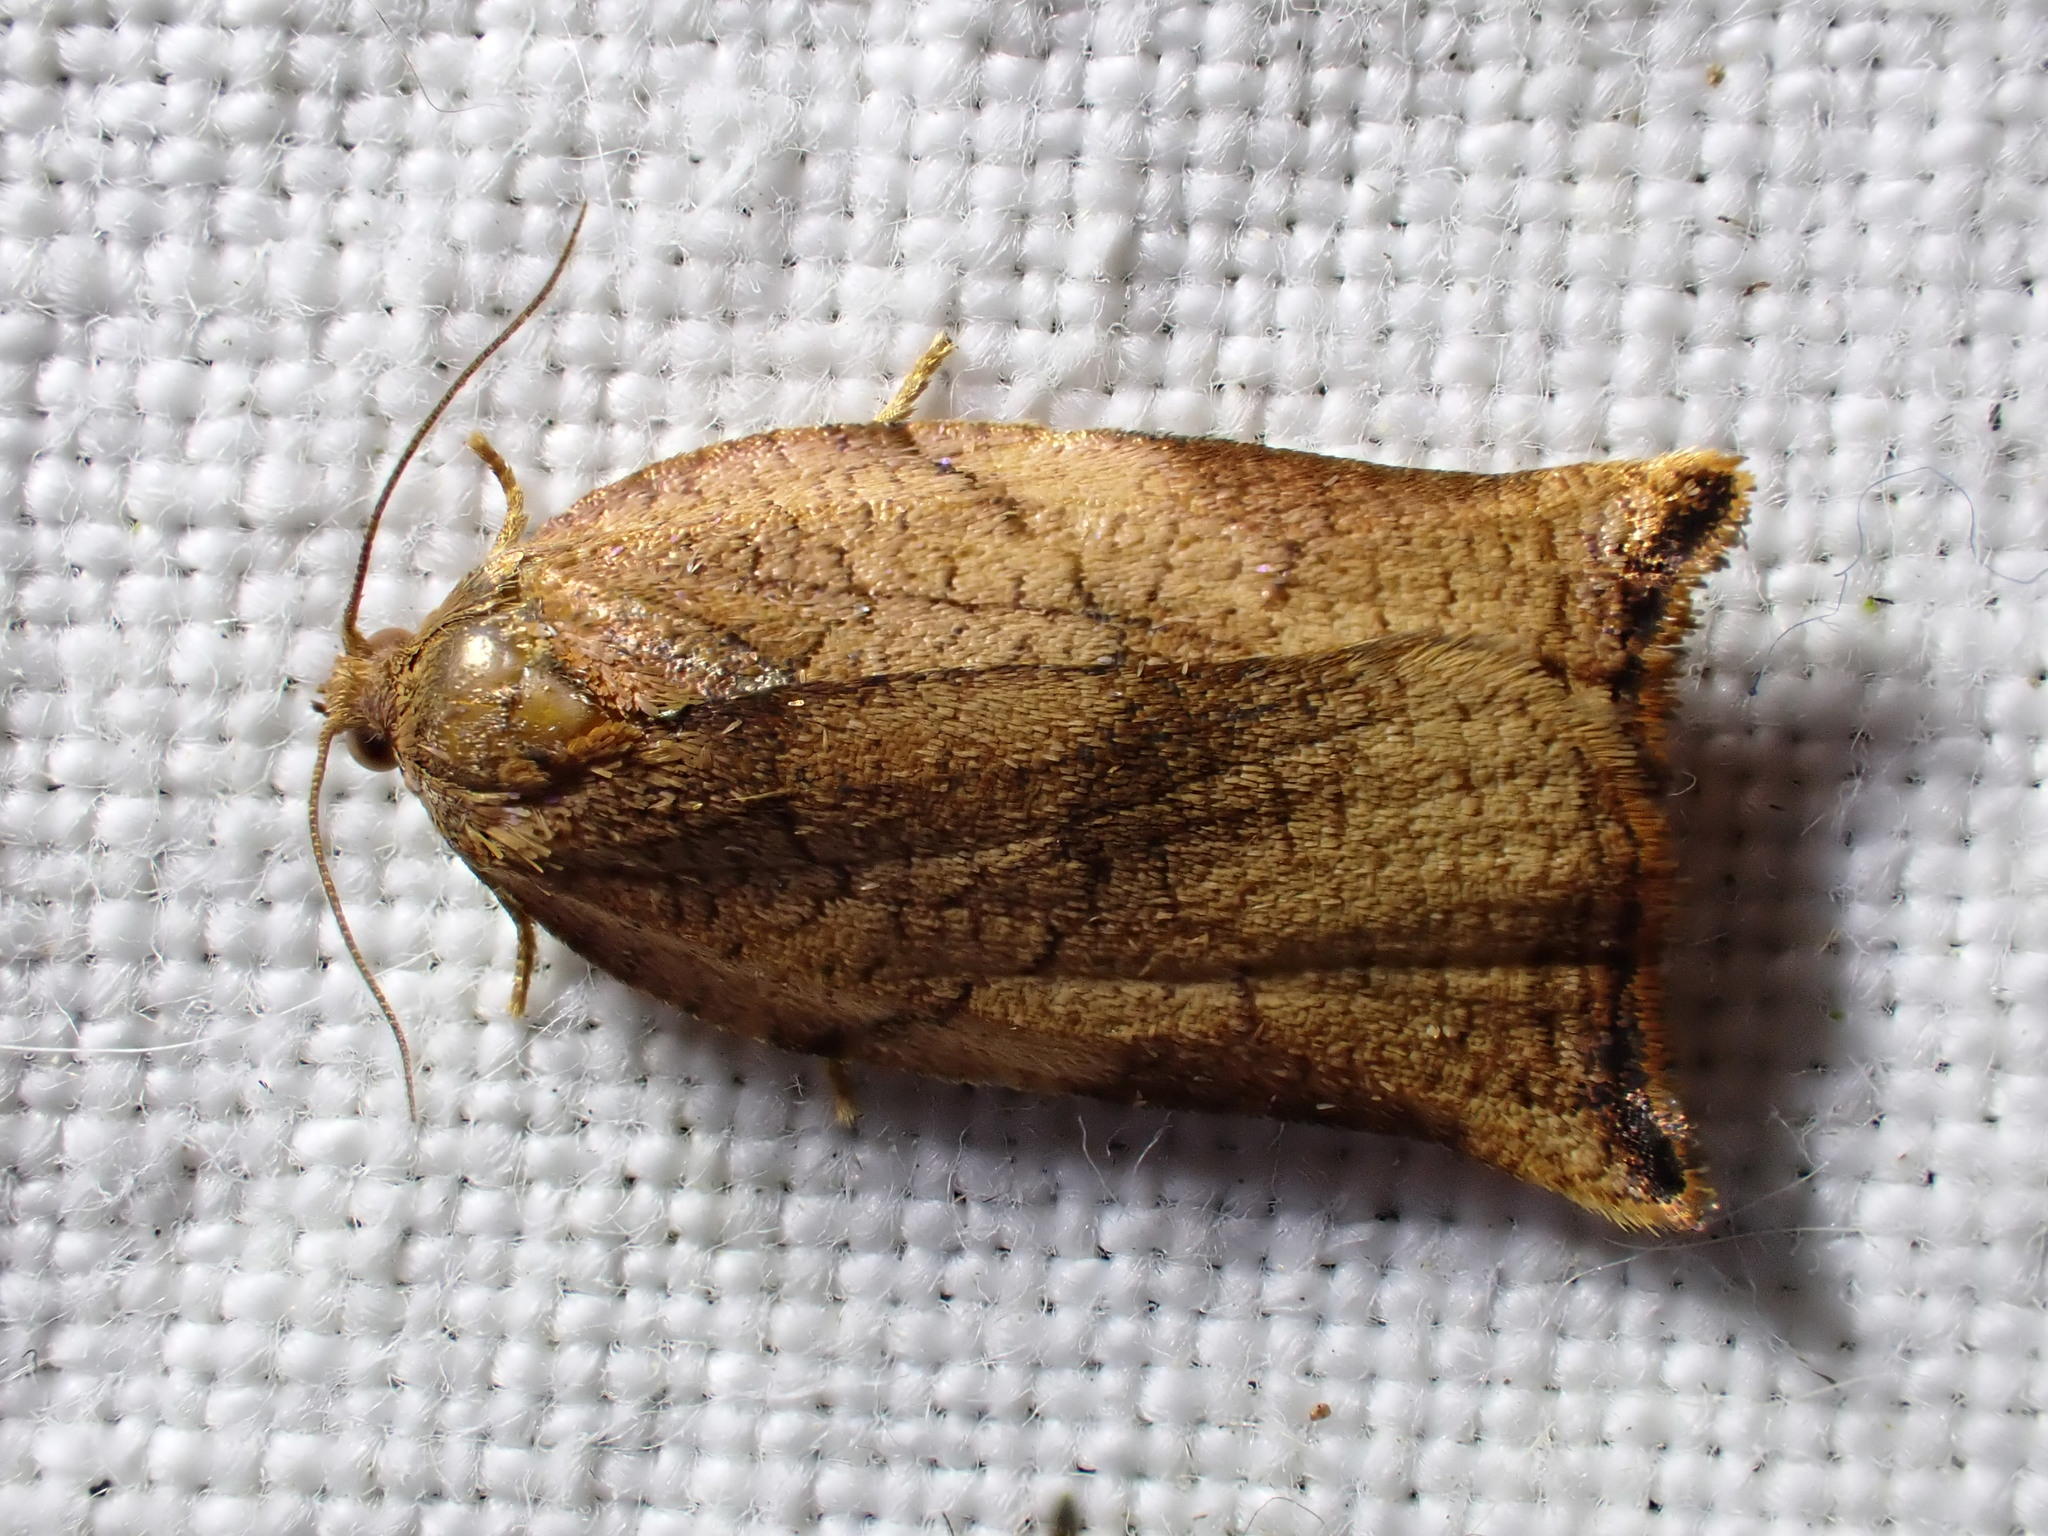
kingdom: Animalia
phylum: Arthropoda
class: Insecta
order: Lepidoptera
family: Tortricidae
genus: Archips
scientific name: Archips podana
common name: Large fruit-tree tortrix
